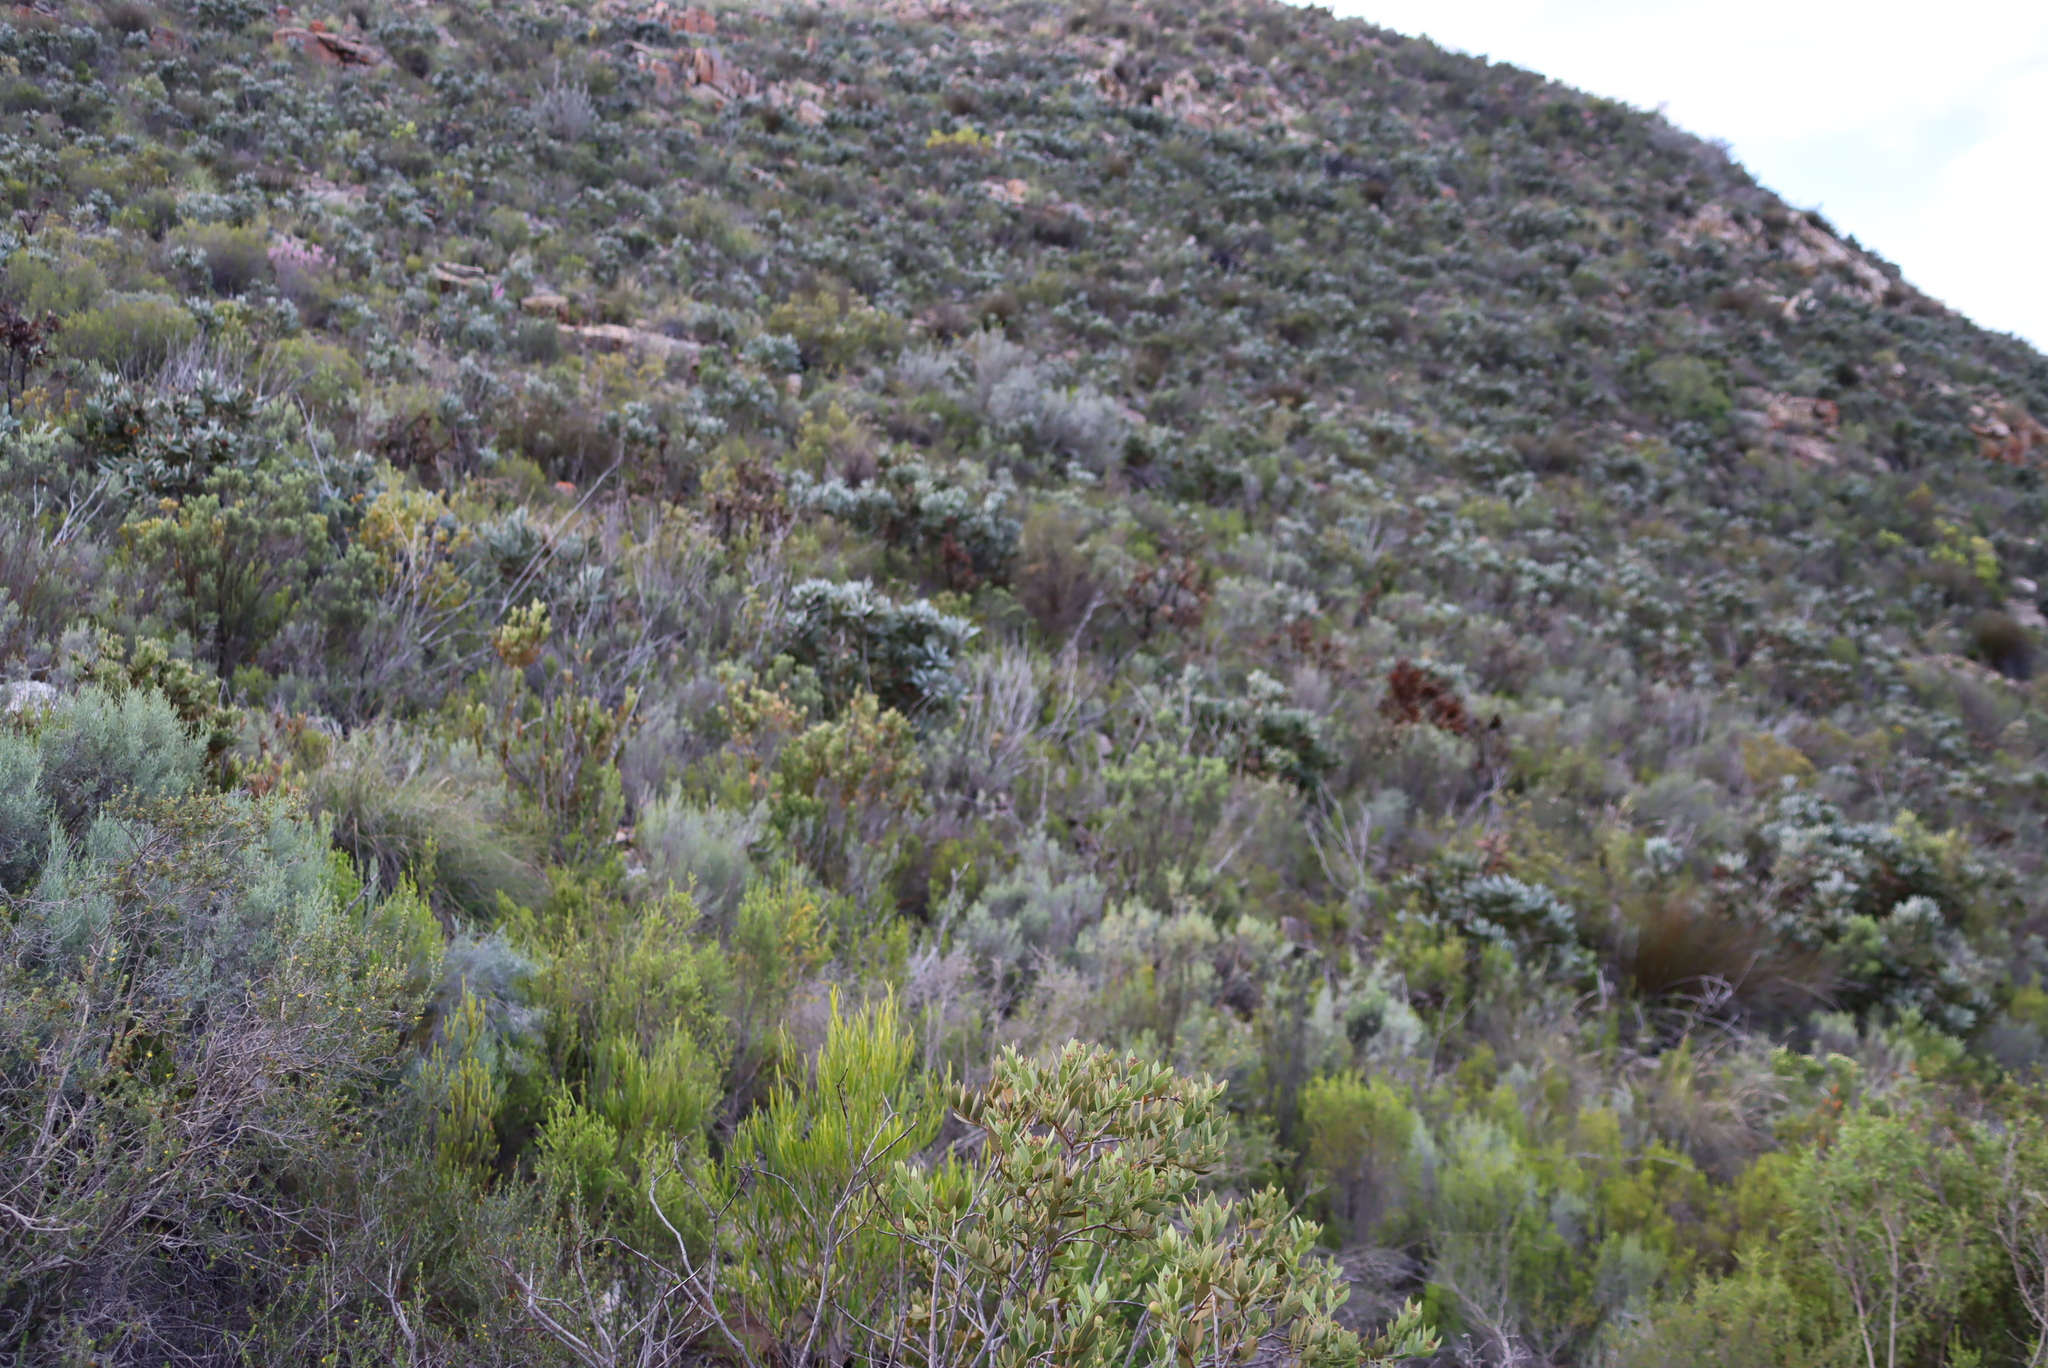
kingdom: Plantae
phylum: Tracheophyta
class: Magnoliopsida
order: Proteales
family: Proteaceae
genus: Protea
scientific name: Protea lorifolia
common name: Strap-leaved protea
